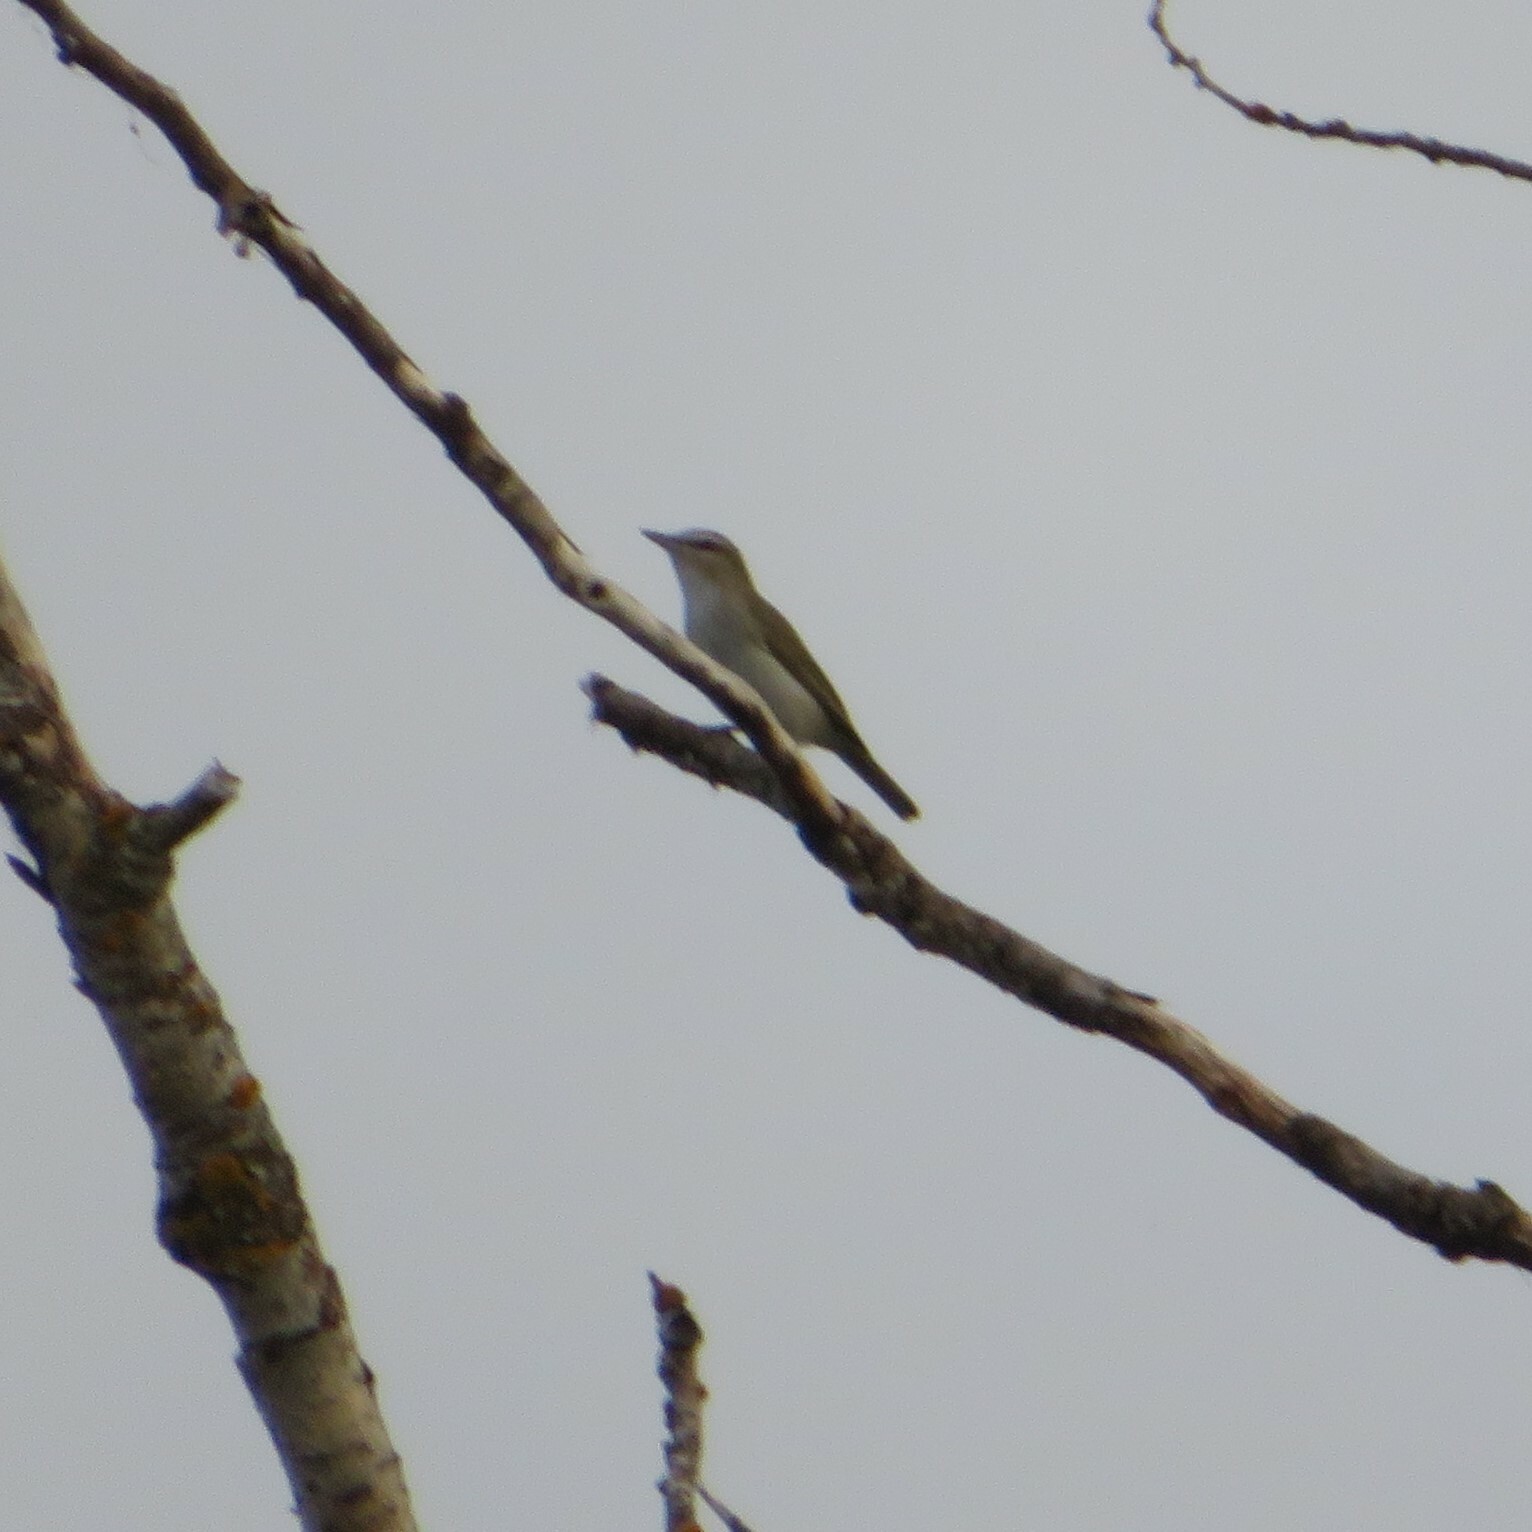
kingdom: Animalia
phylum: Chordata
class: Aves
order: Passeriformes
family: Vireonidae
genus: Vireo
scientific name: Vireo olivaceus
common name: Red-eyed vireo
